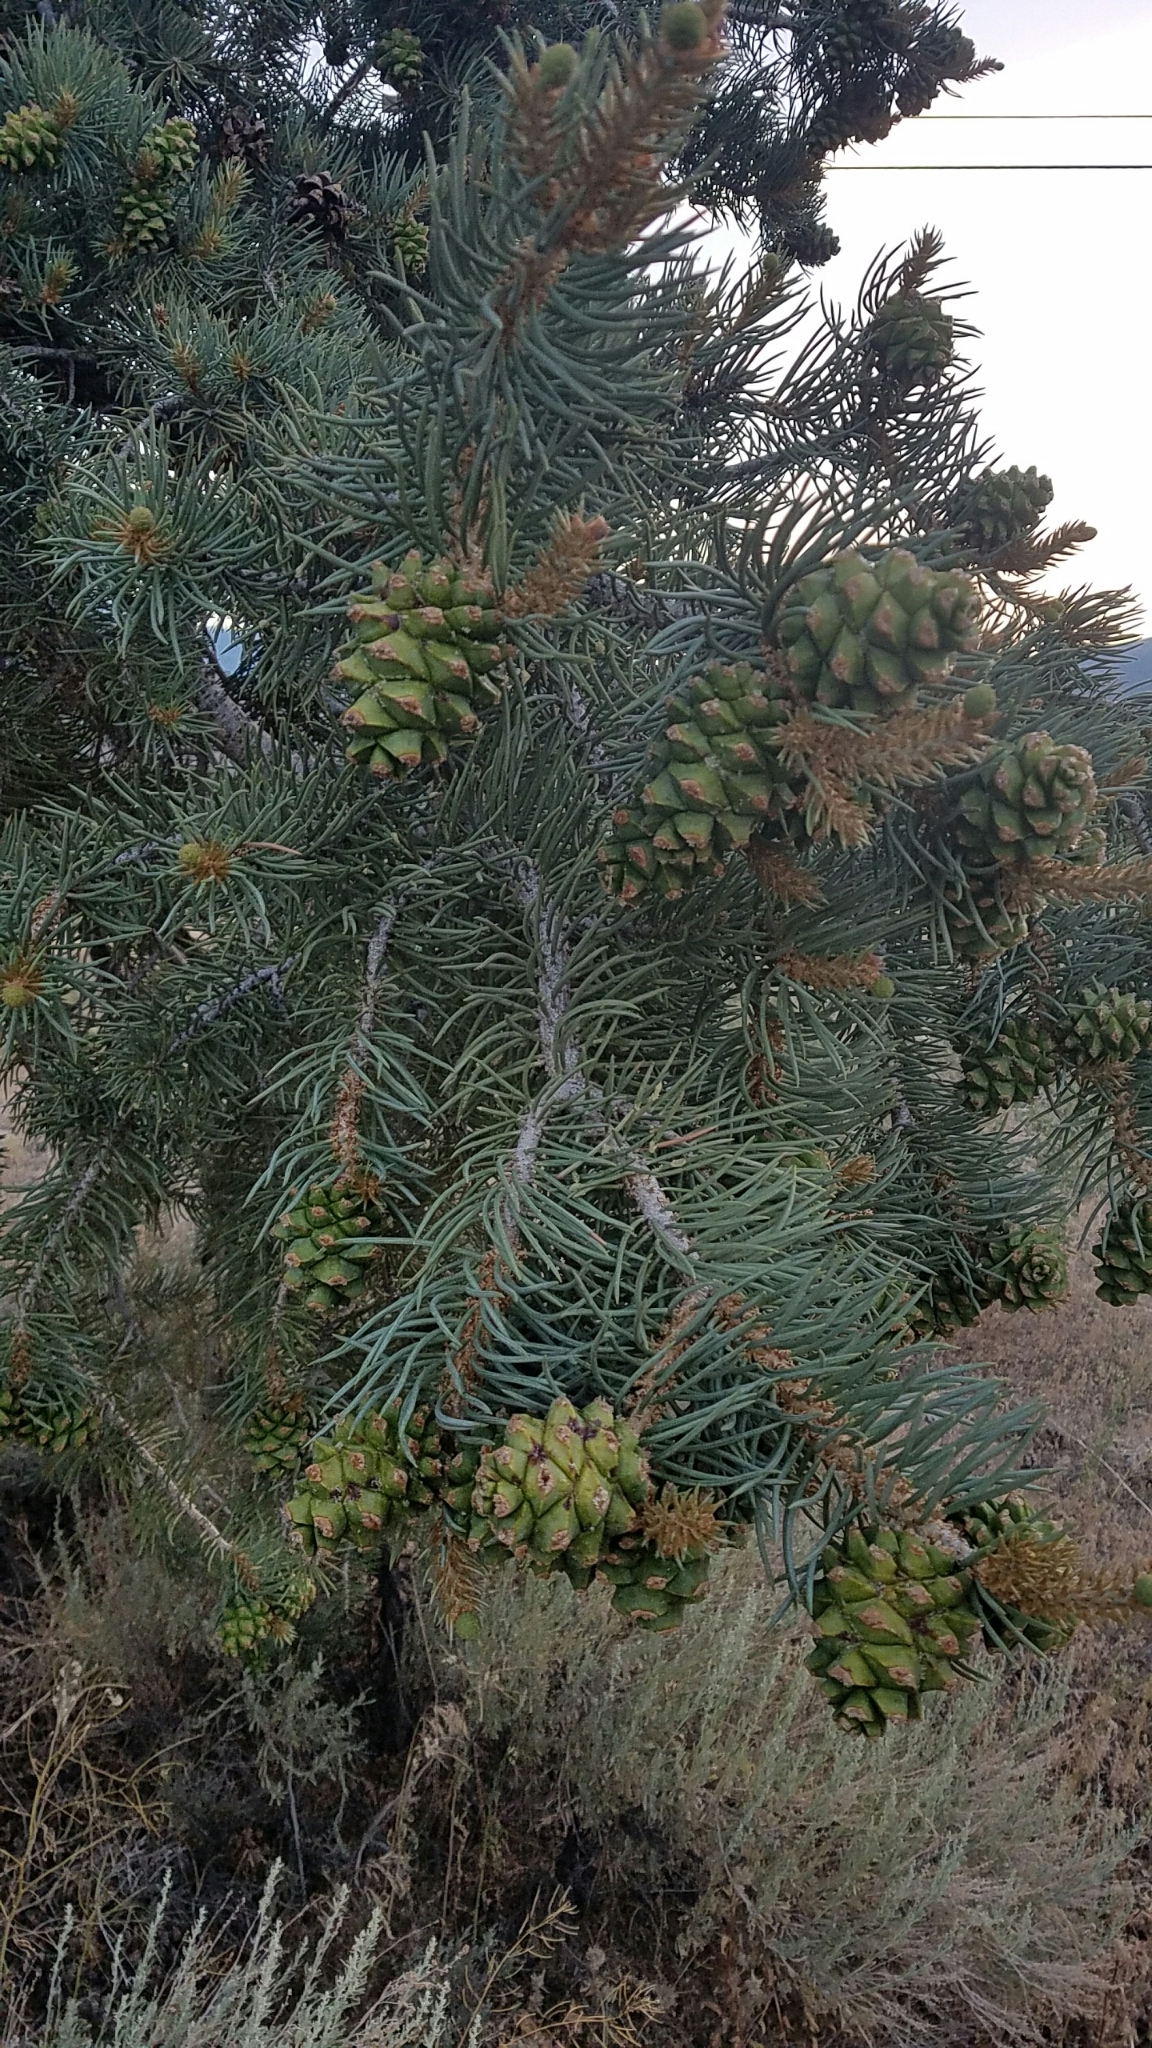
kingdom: Plantae
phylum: Tracheophyta
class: Pinopsida
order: Pinales
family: Pinaceae
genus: Pinus
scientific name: Pinus monophylla
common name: One-leaved nut pine
